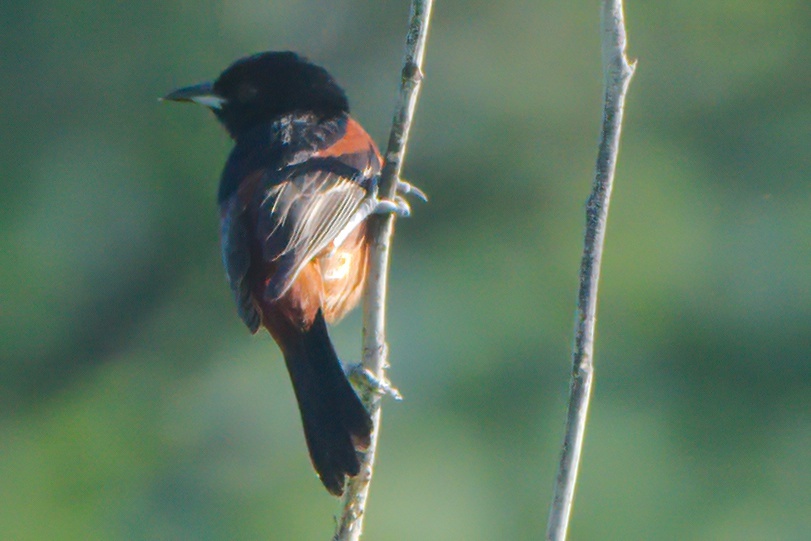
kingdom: Animalia
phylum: Chordata
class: Aves
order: Passeriformes
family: Icteridae
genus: Icterus
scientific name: Icterus spurius
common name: Orchard oriole
